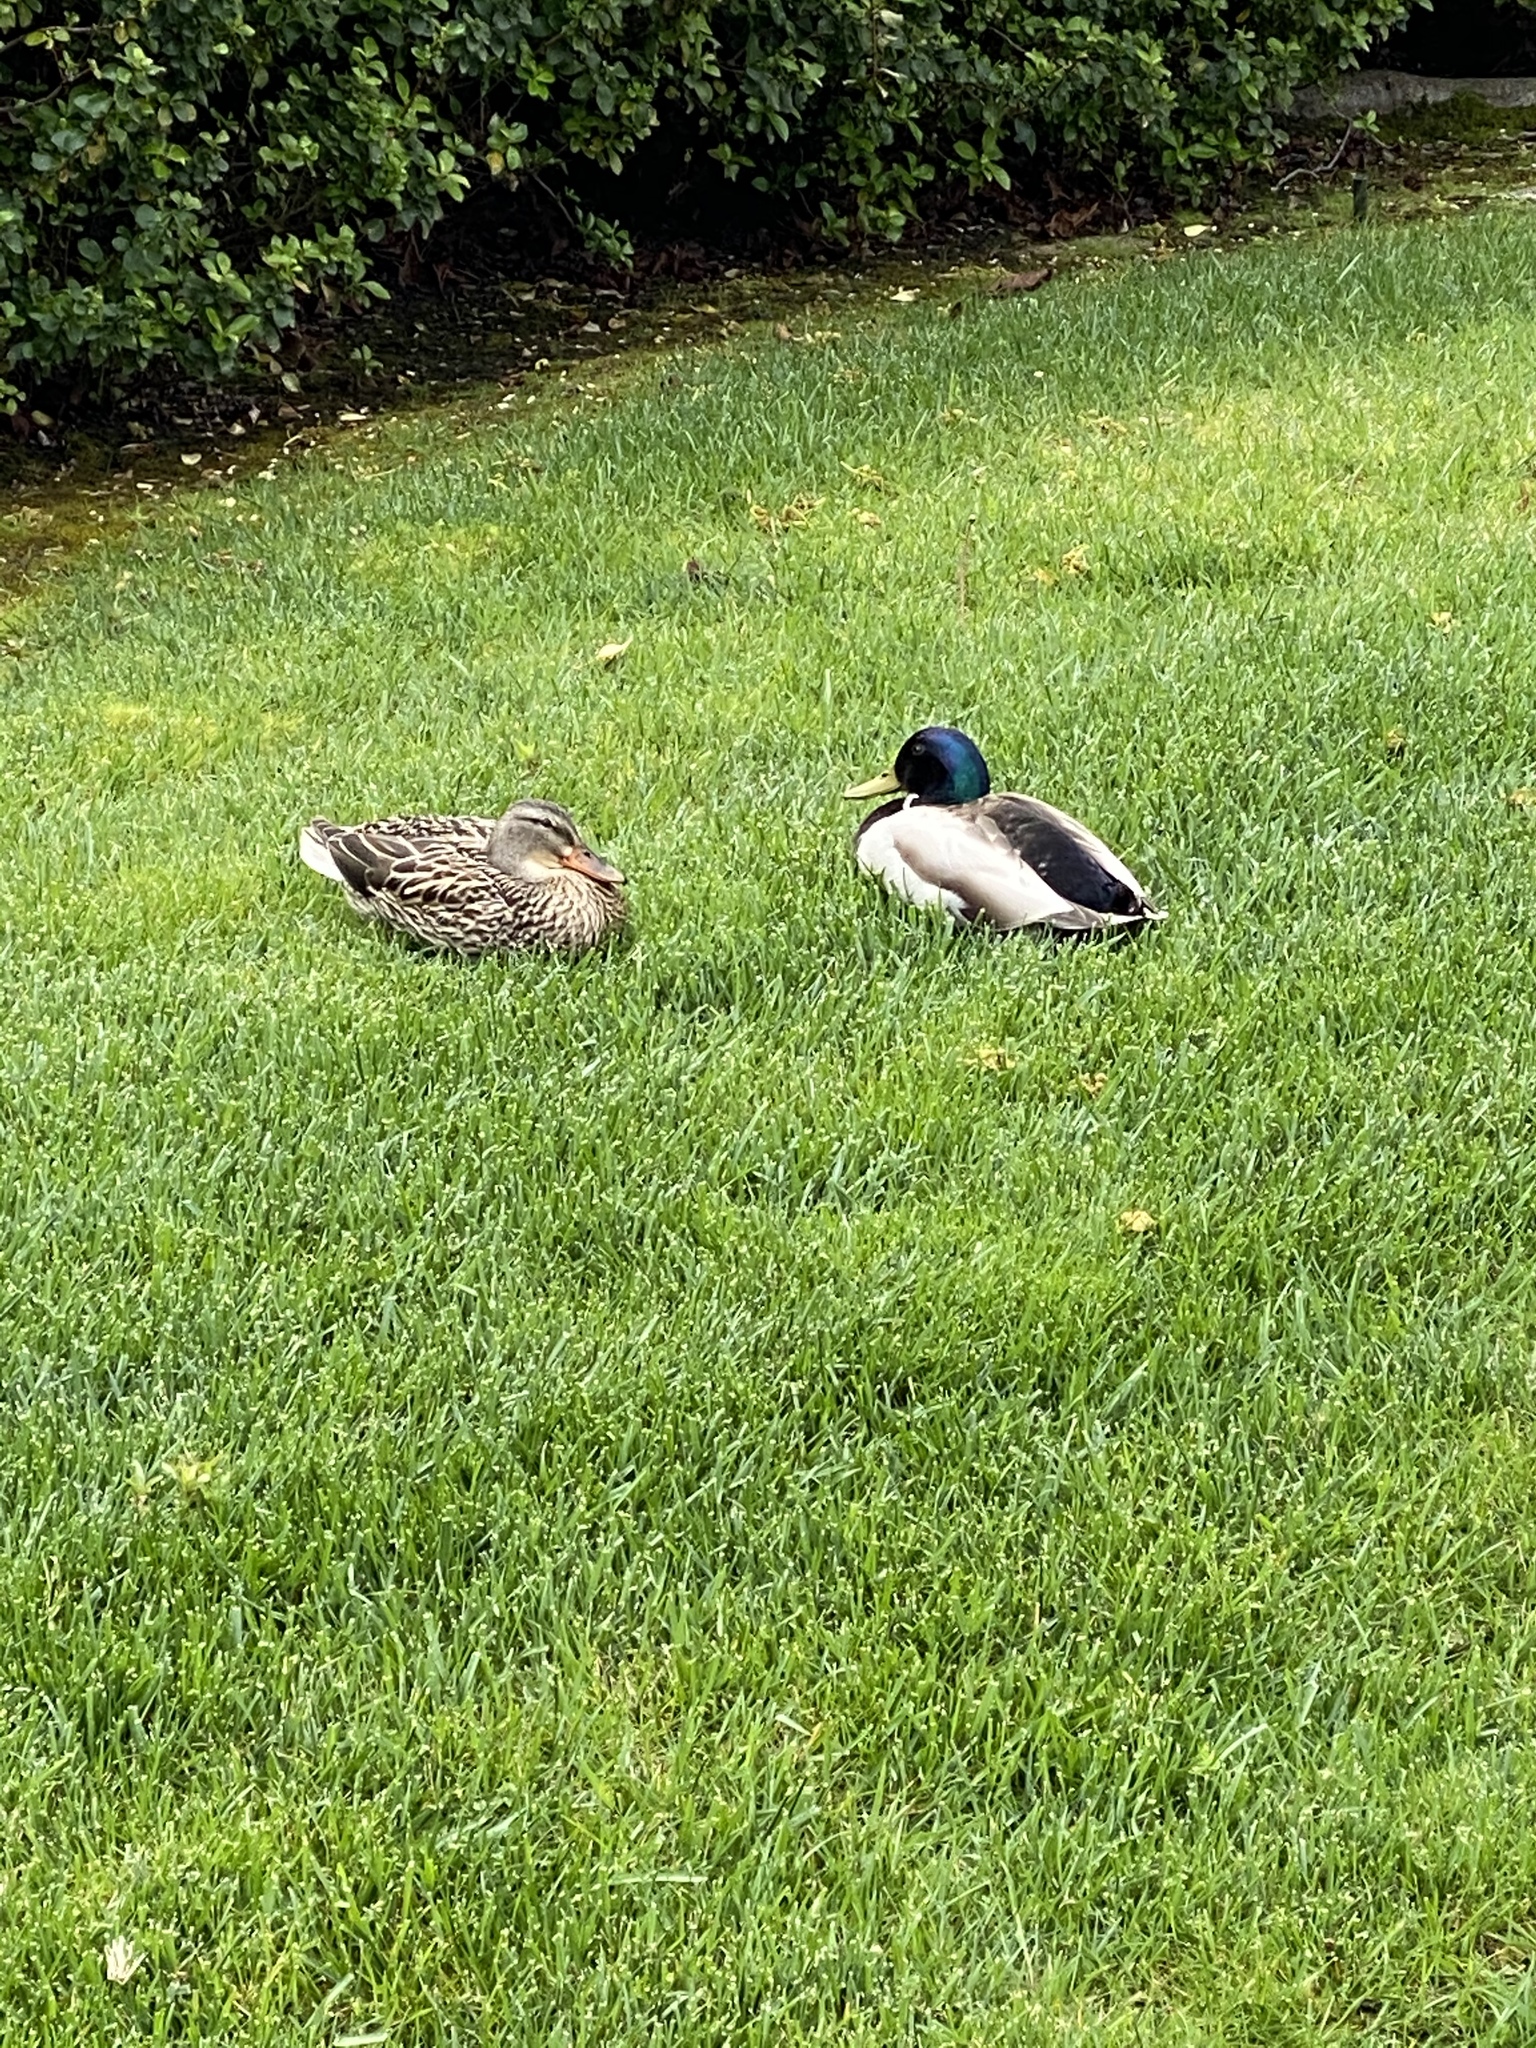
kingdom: Animalia
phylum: Chordata
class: Aves
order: Anseriformes
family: Anatidae
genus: Anas
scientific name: Anas platyrhynchos
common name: Mallard
